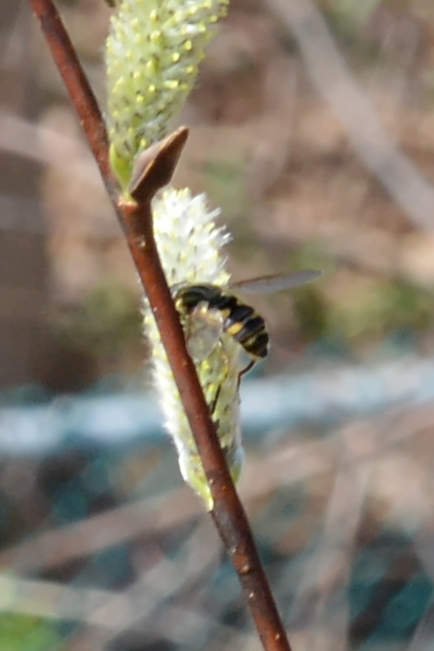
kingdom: Animalia
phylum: Arthropoda
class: Insecta
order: Diptera
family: Syrphidae
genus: Helophilus
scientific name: Helophilus fasciatus
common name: Narrow-headed marsh fly
